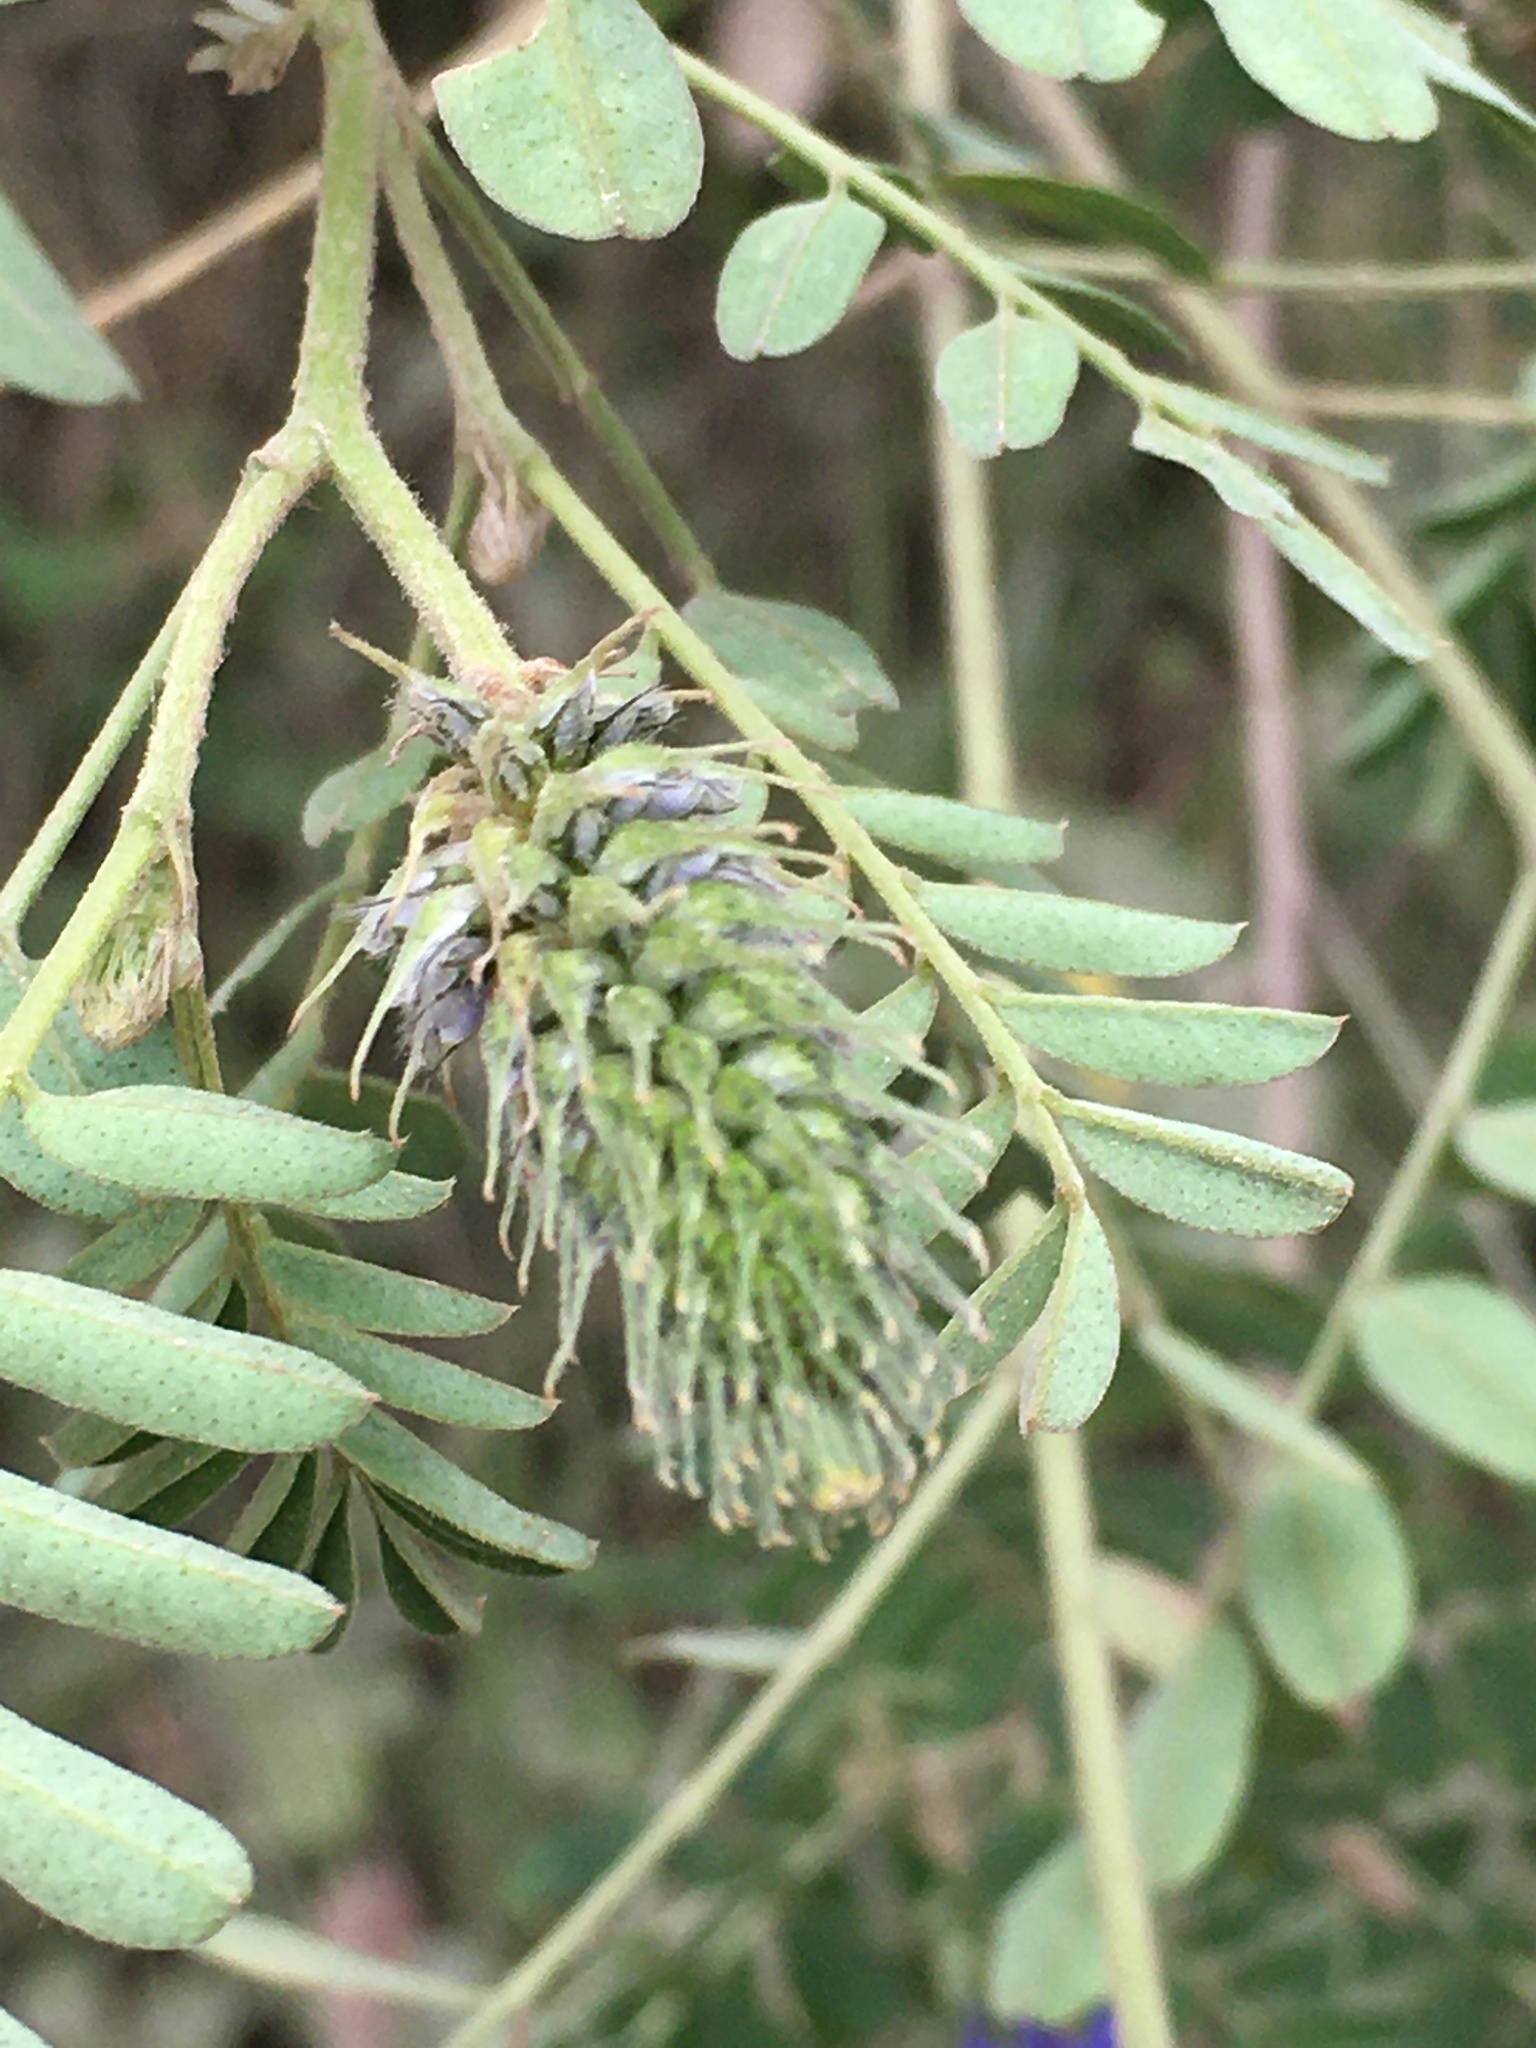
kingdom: Plantae
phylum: Tracheophyta
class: Magnoliopsida
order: Fabales
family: Fabaceae
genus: Dalea
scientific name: Dalea coerulea
